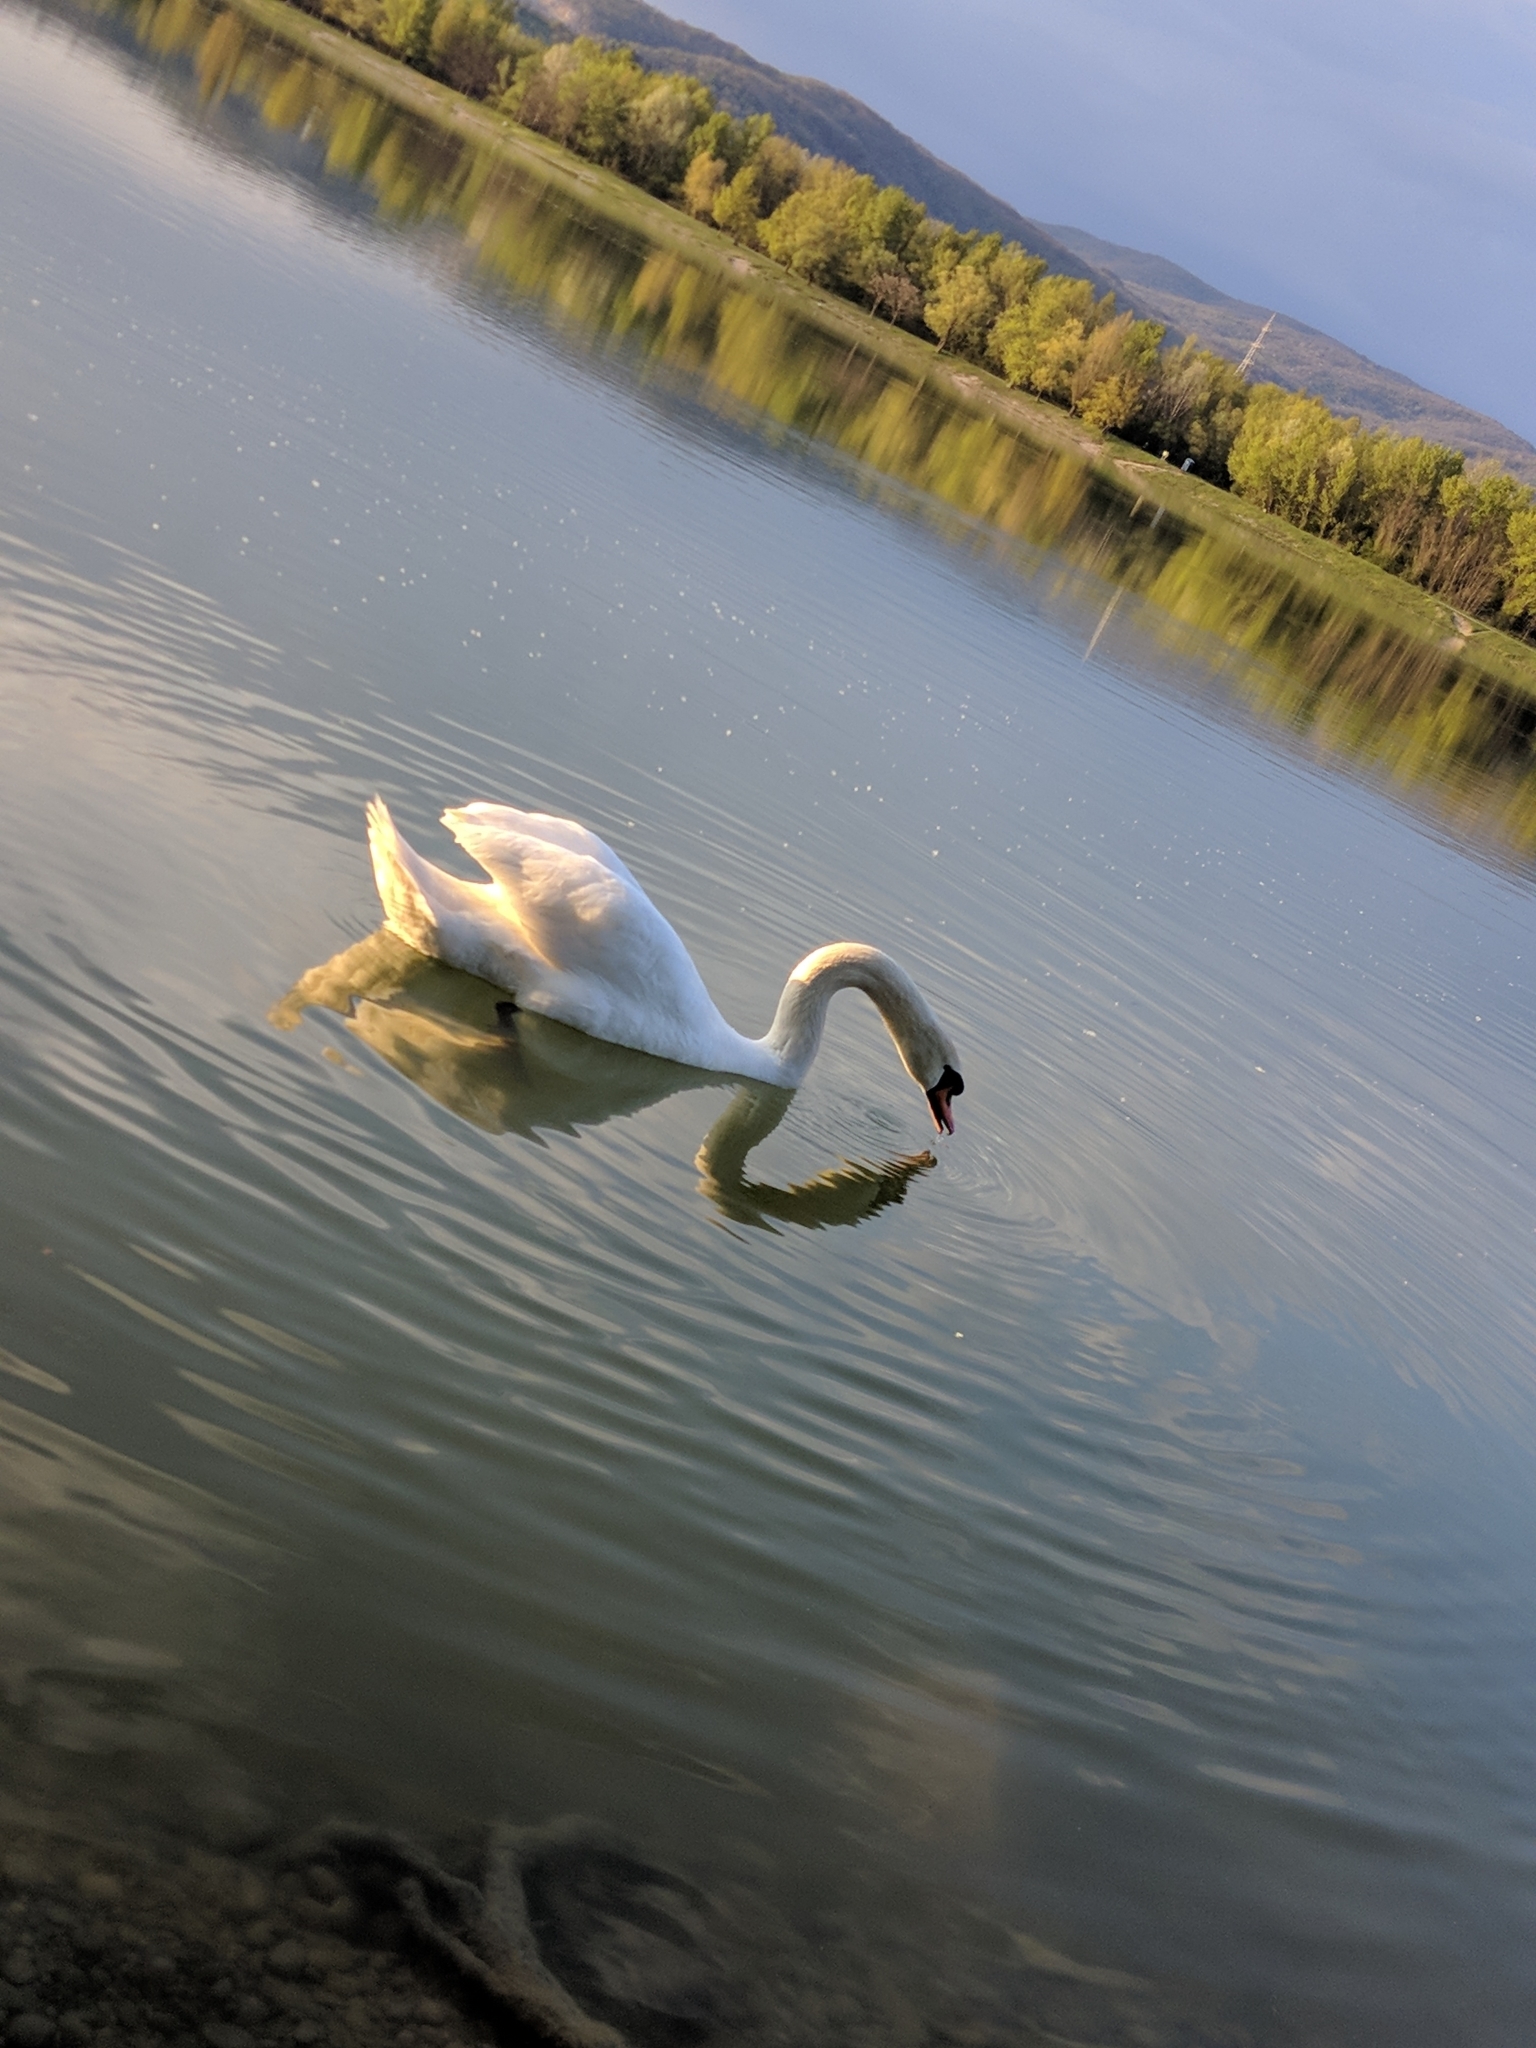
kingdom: Animalia
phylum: Chordata
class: Aves
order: Anseriformes
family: Anatidae
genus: Cygnus
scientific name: Cygnus olor
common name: Mute swan
